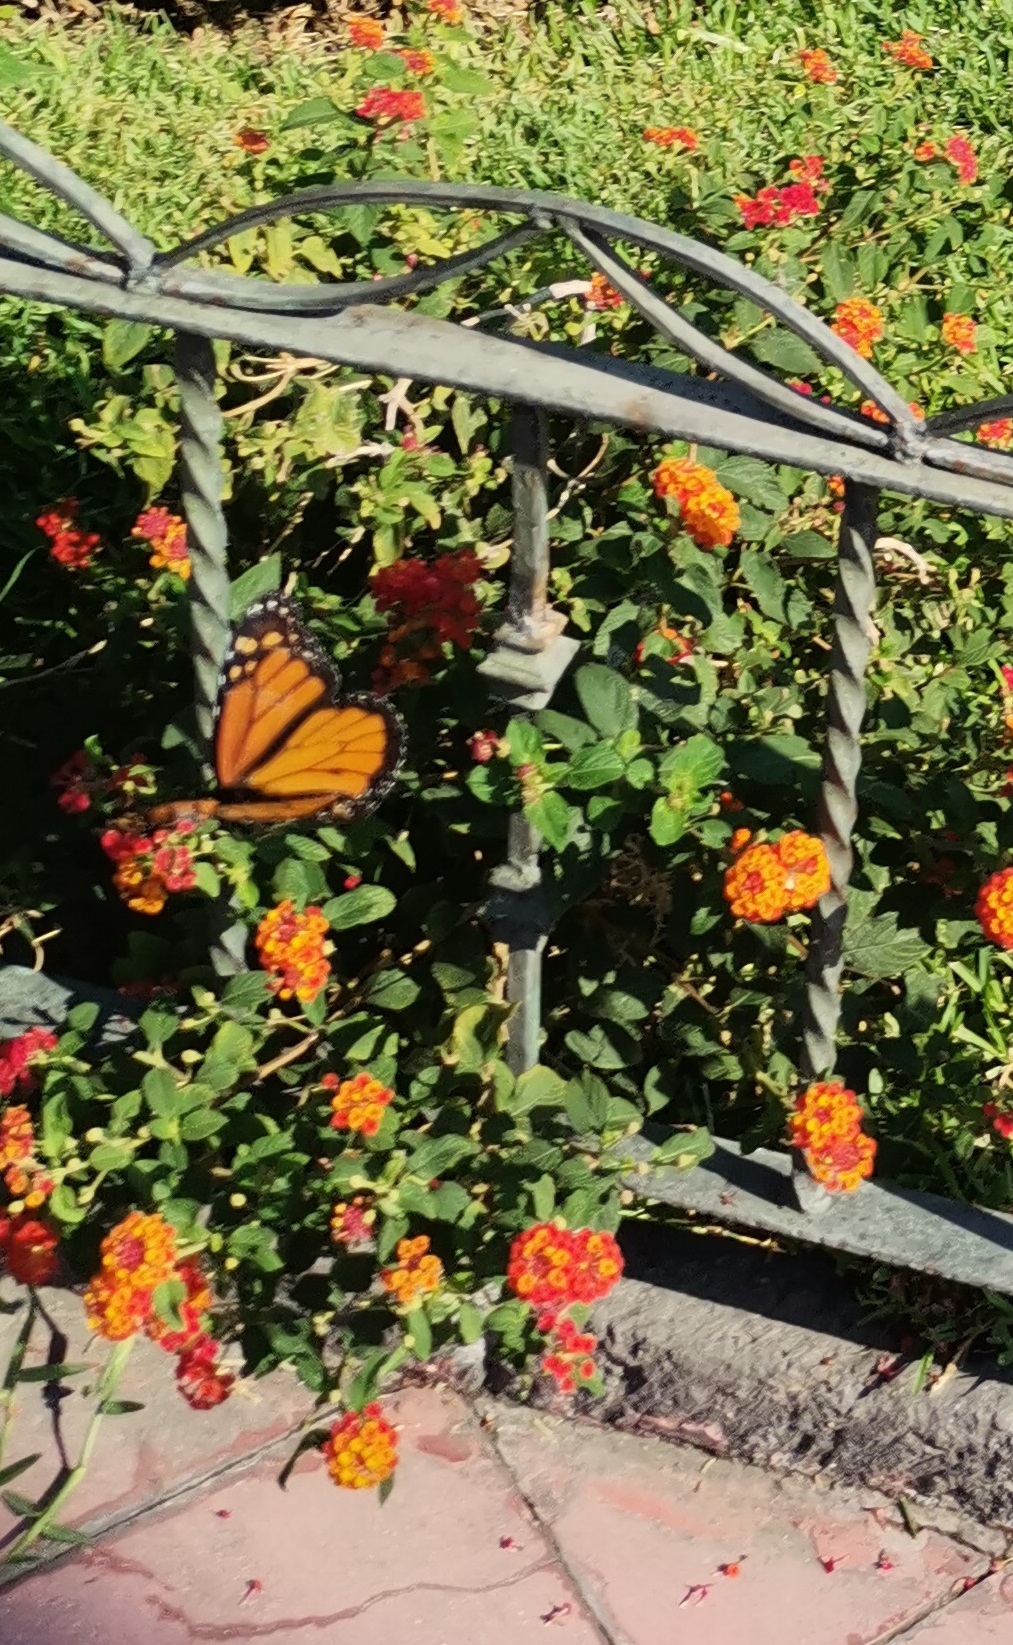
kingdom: Animalia
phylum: Arthropoda
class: Insecta
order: Lepidoptera
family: Nymphalidae
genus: Danaus
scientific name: Danaus plexippus
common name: Monarch
